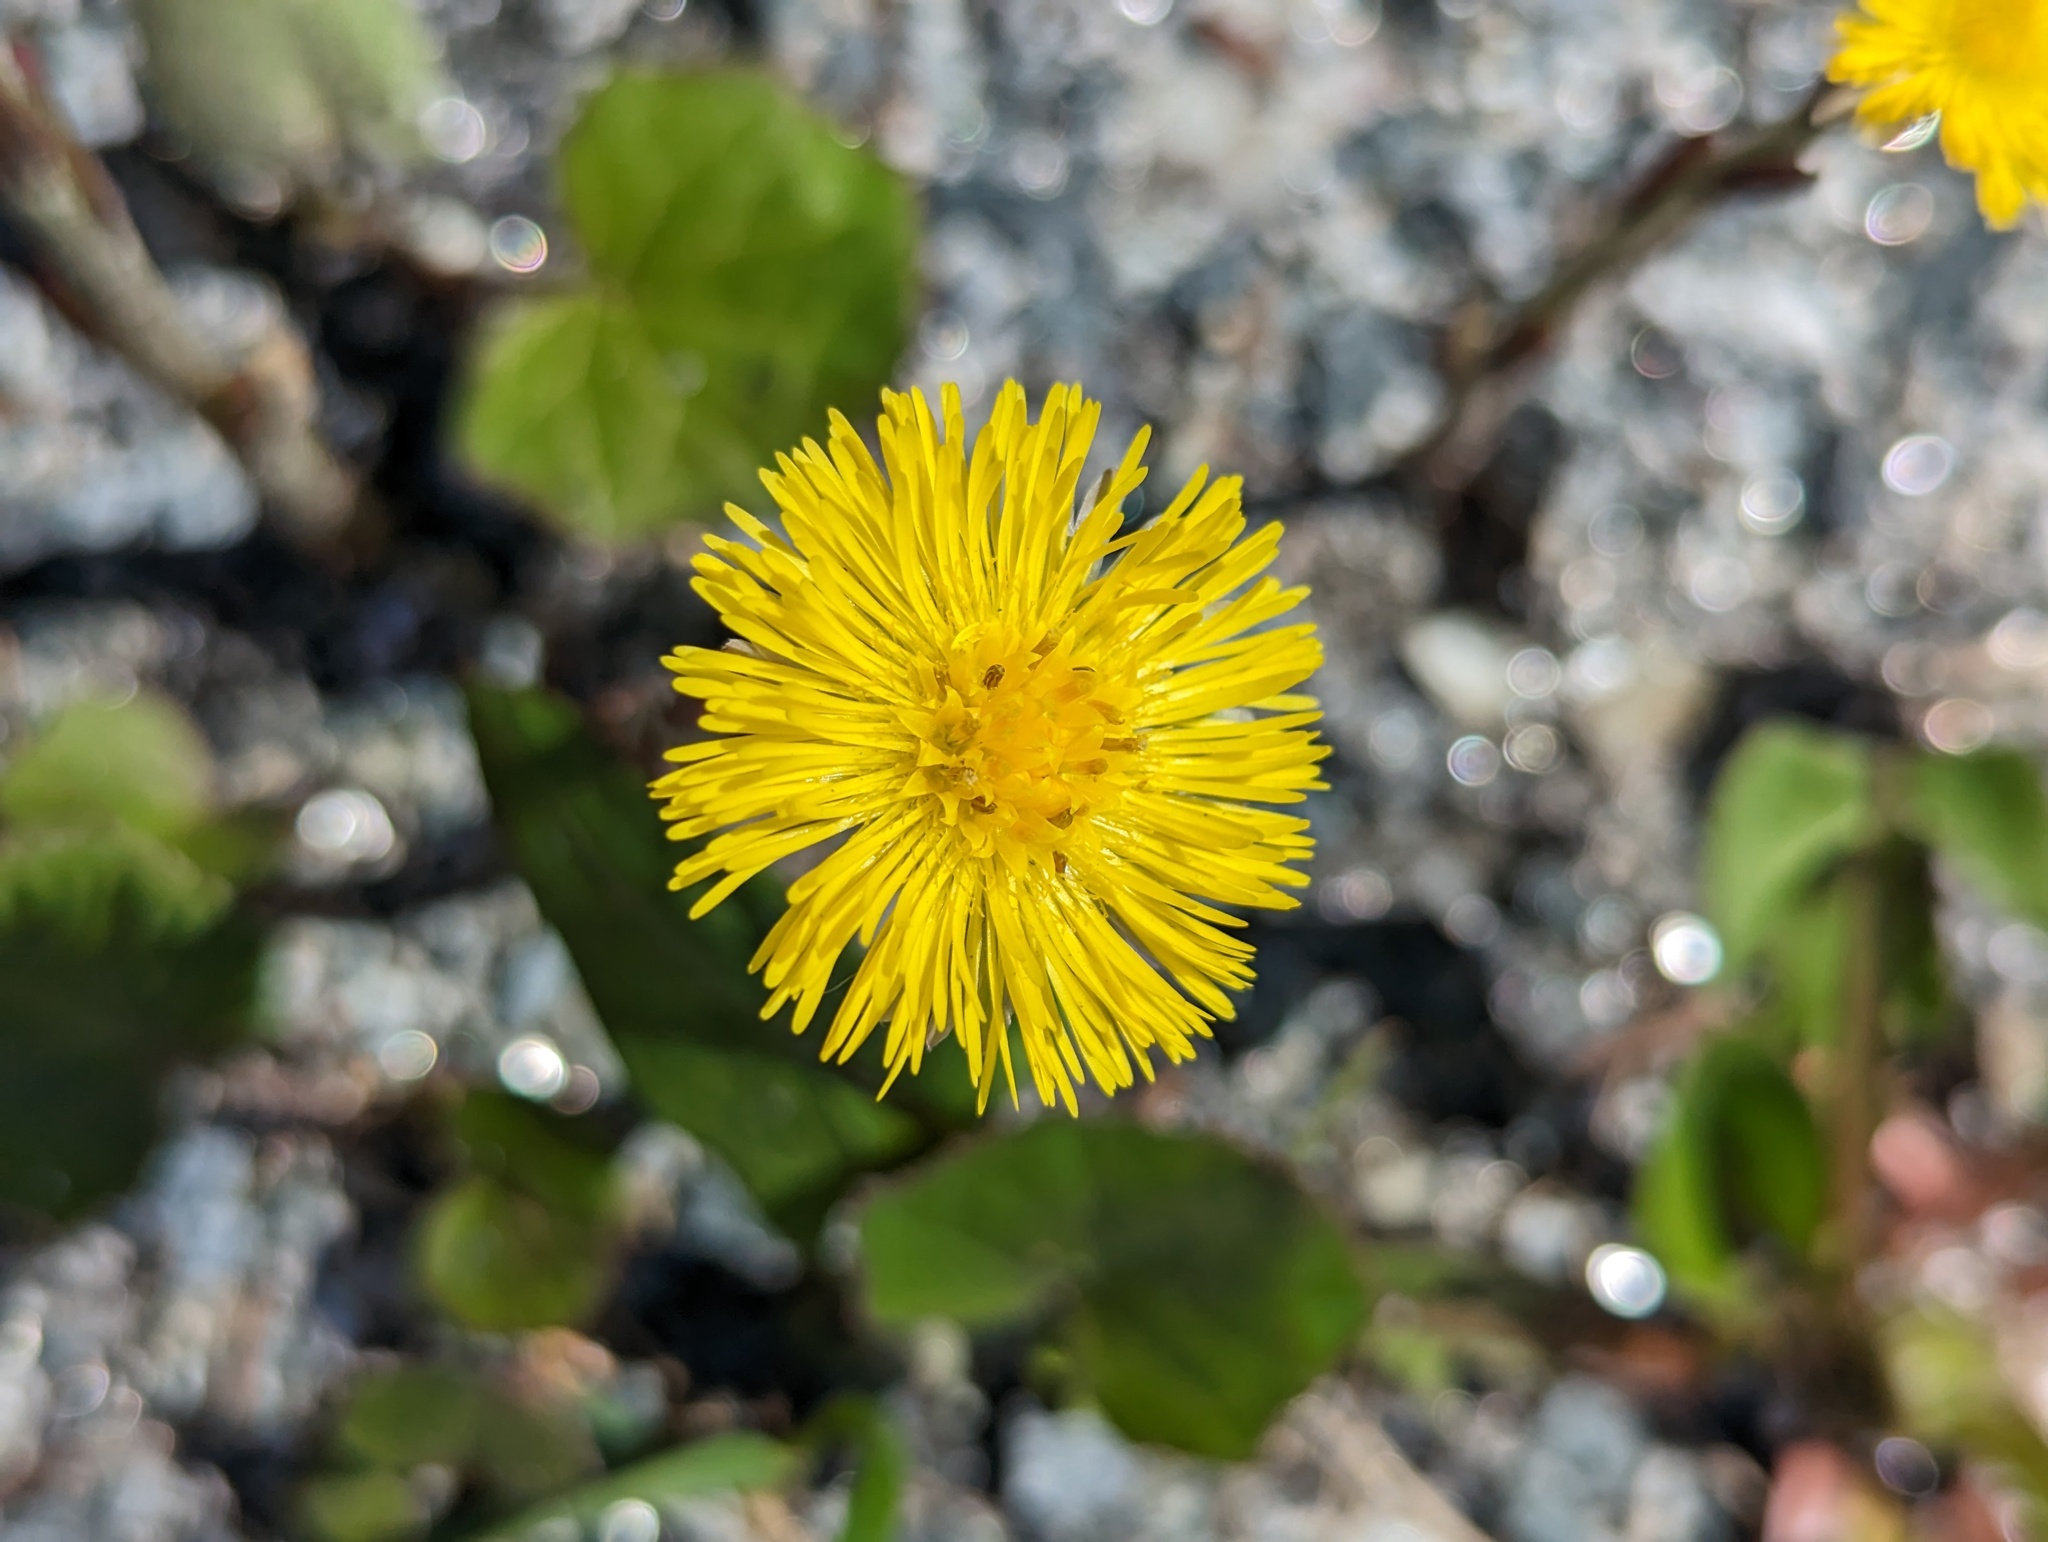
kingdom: Plantae
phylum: Tracheophyta
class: Magnoliopsida
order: Asterales
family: Asteraceae
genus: Tussilago
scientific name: Tussilago farfara
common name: Coltsfoot
